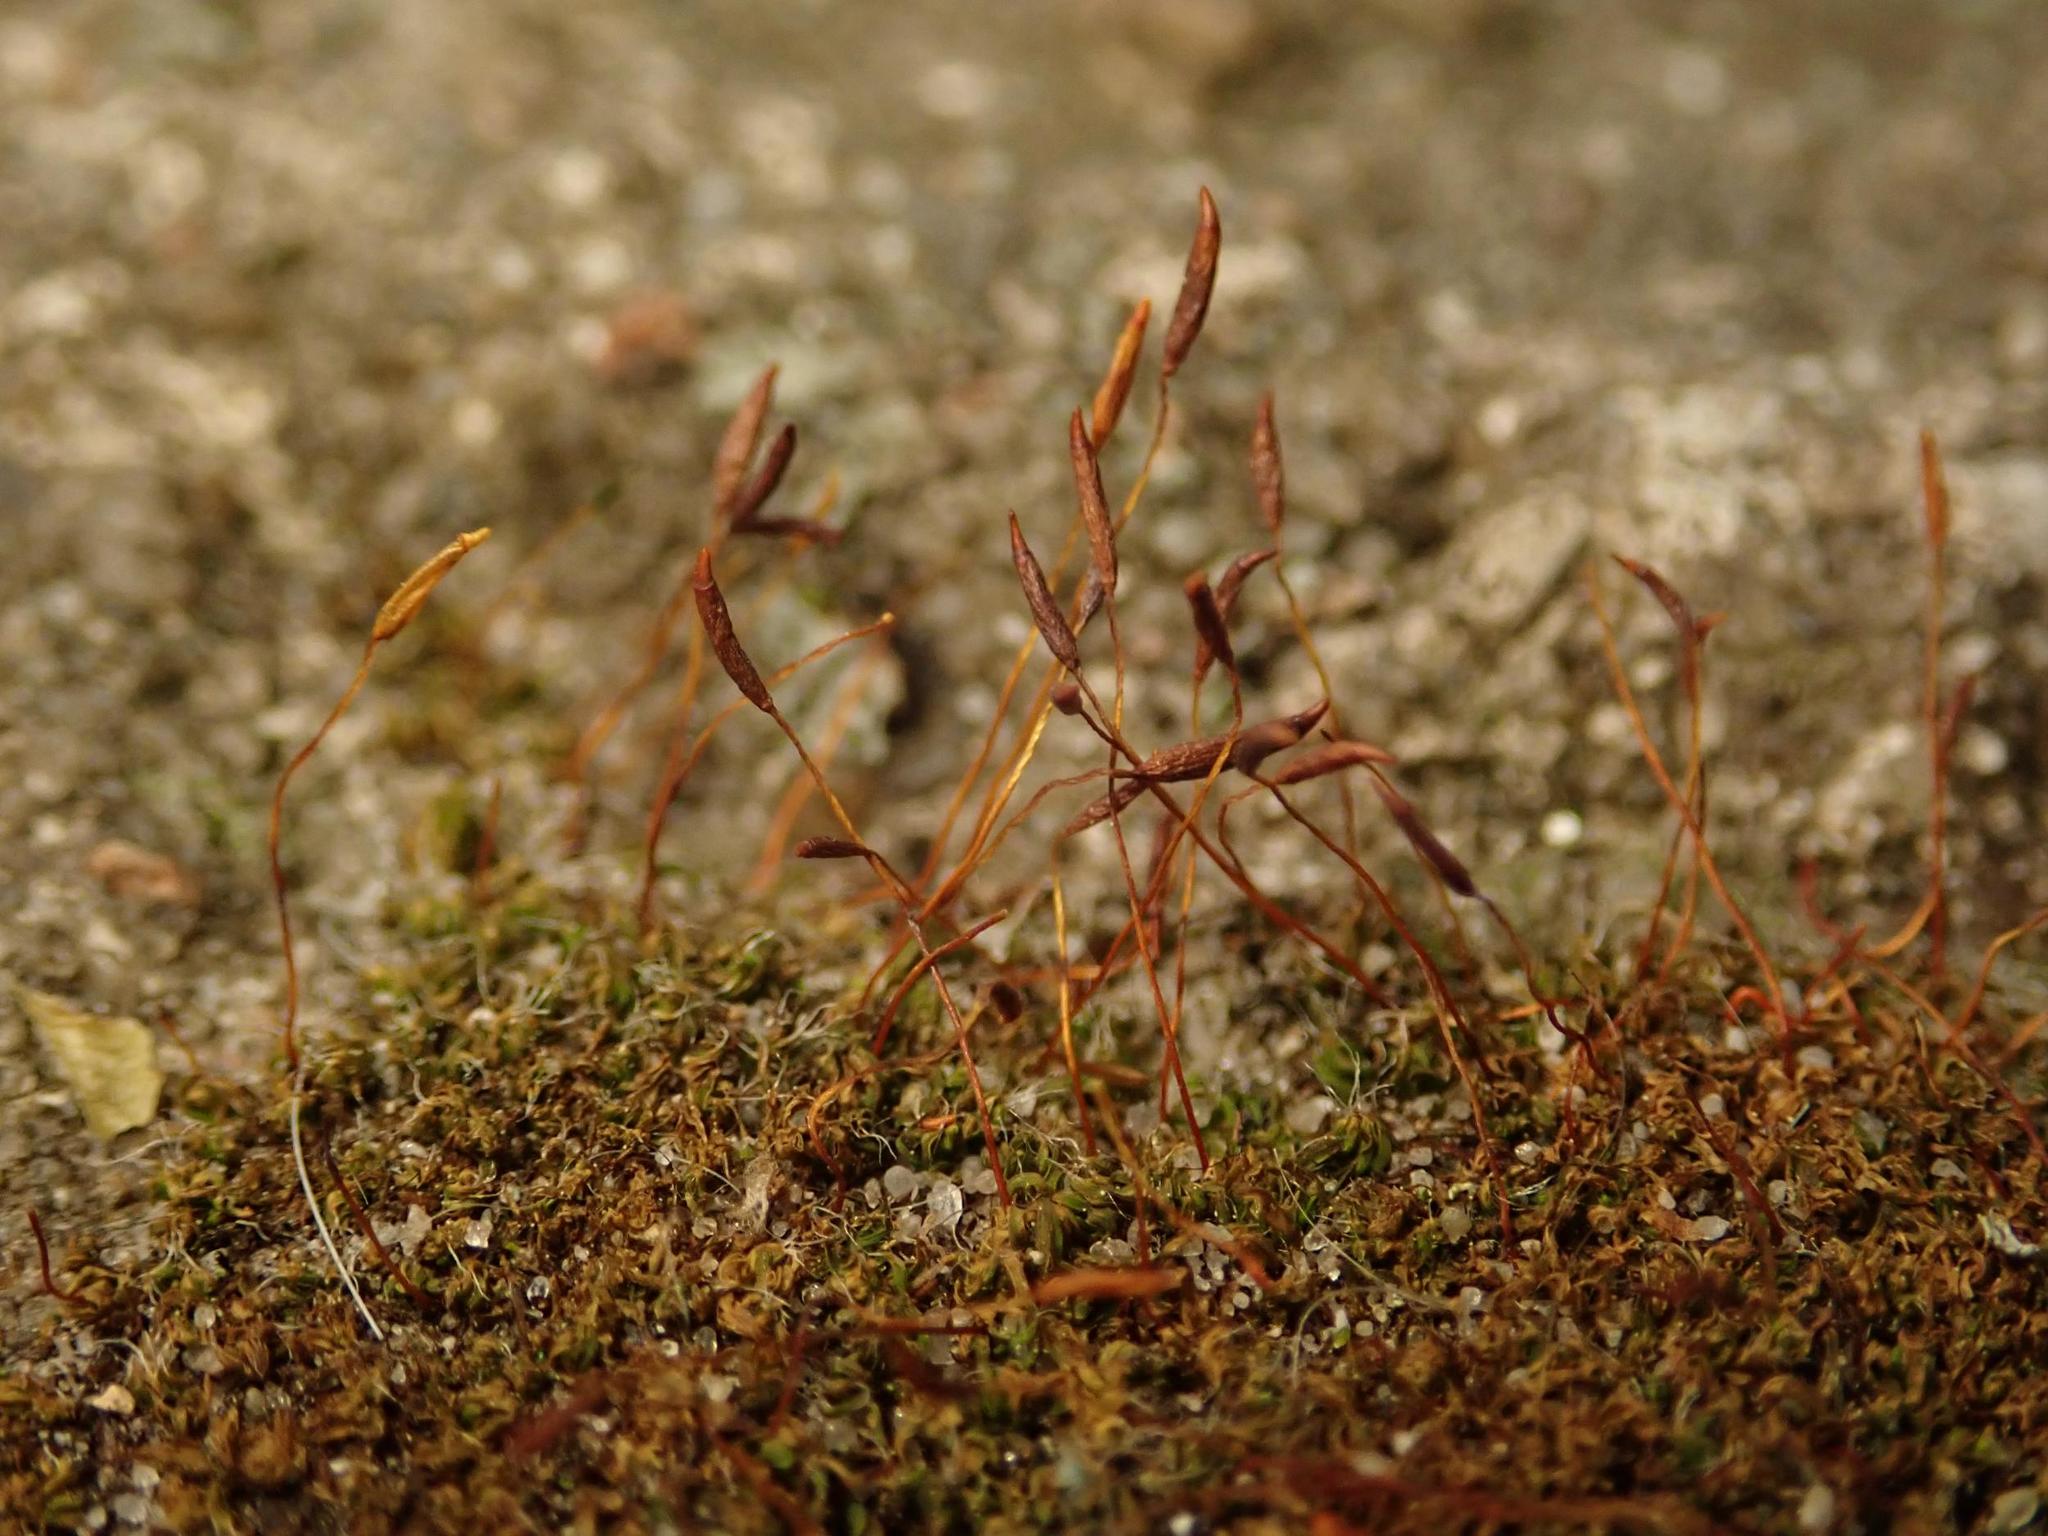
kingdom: Plantae
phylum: Bryophyta
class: Bryopsida
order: Pottiales
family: Pottiaceae
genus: Tortula
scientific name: Tortula muralis
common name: Wall screw-moss
